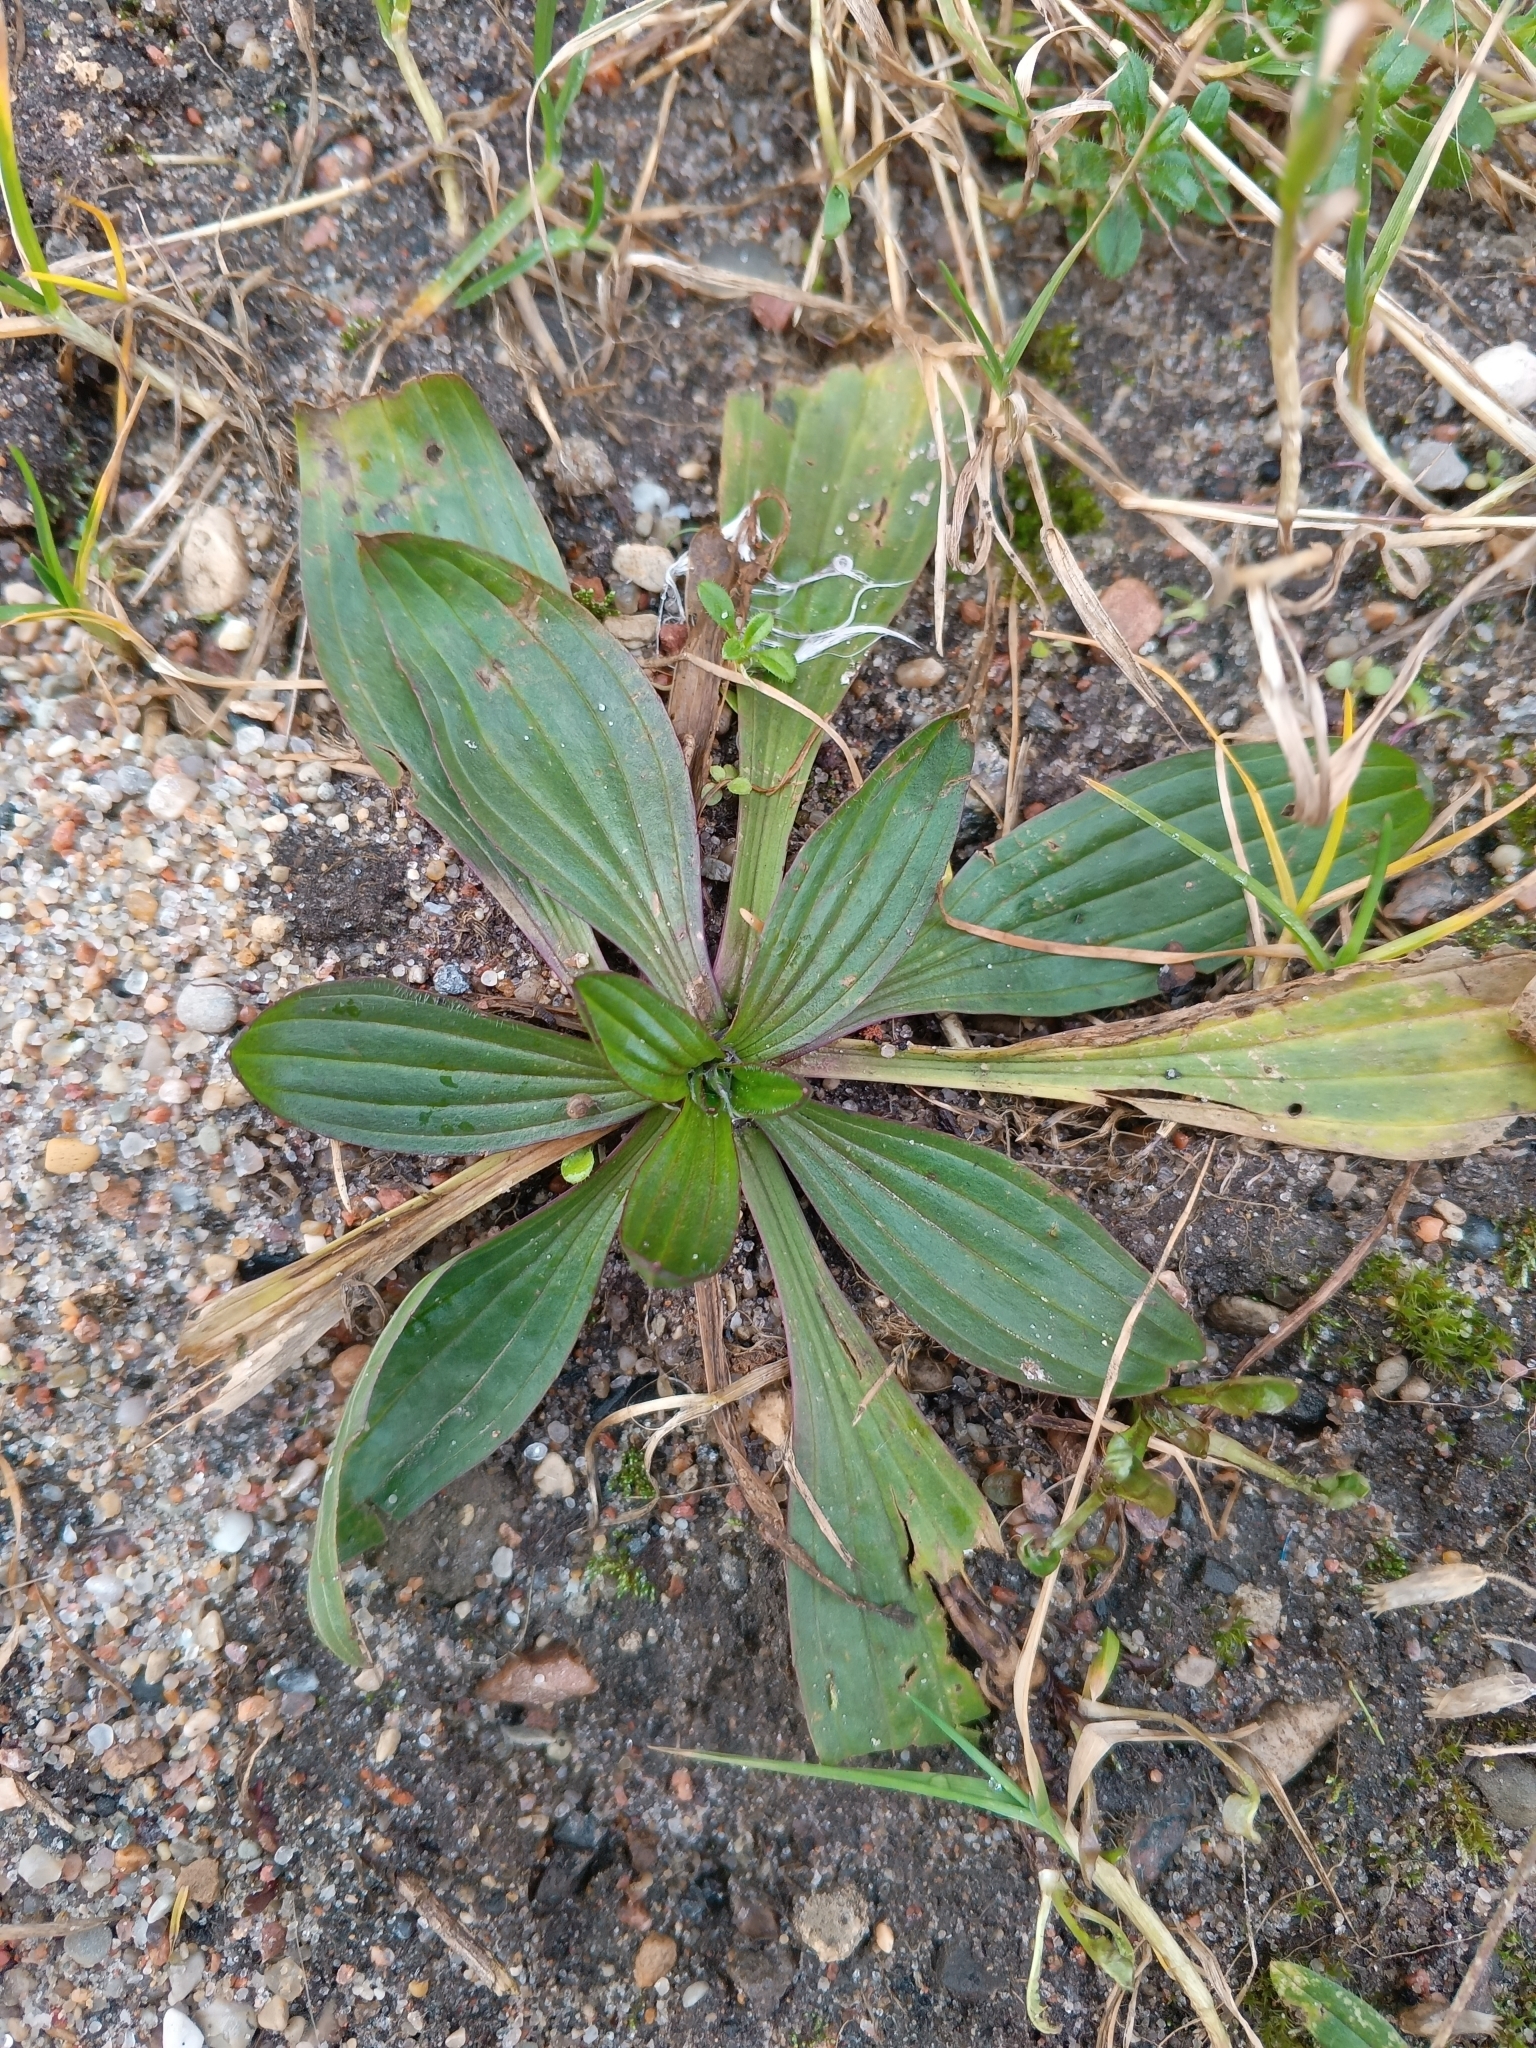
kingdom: Plantae
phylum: Tracheophyta
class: Magnoliopsida
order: Lamiales
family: Plantaginaceae
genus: Plantago
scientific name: Plantago lanceolata
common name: Ribwort plantain
